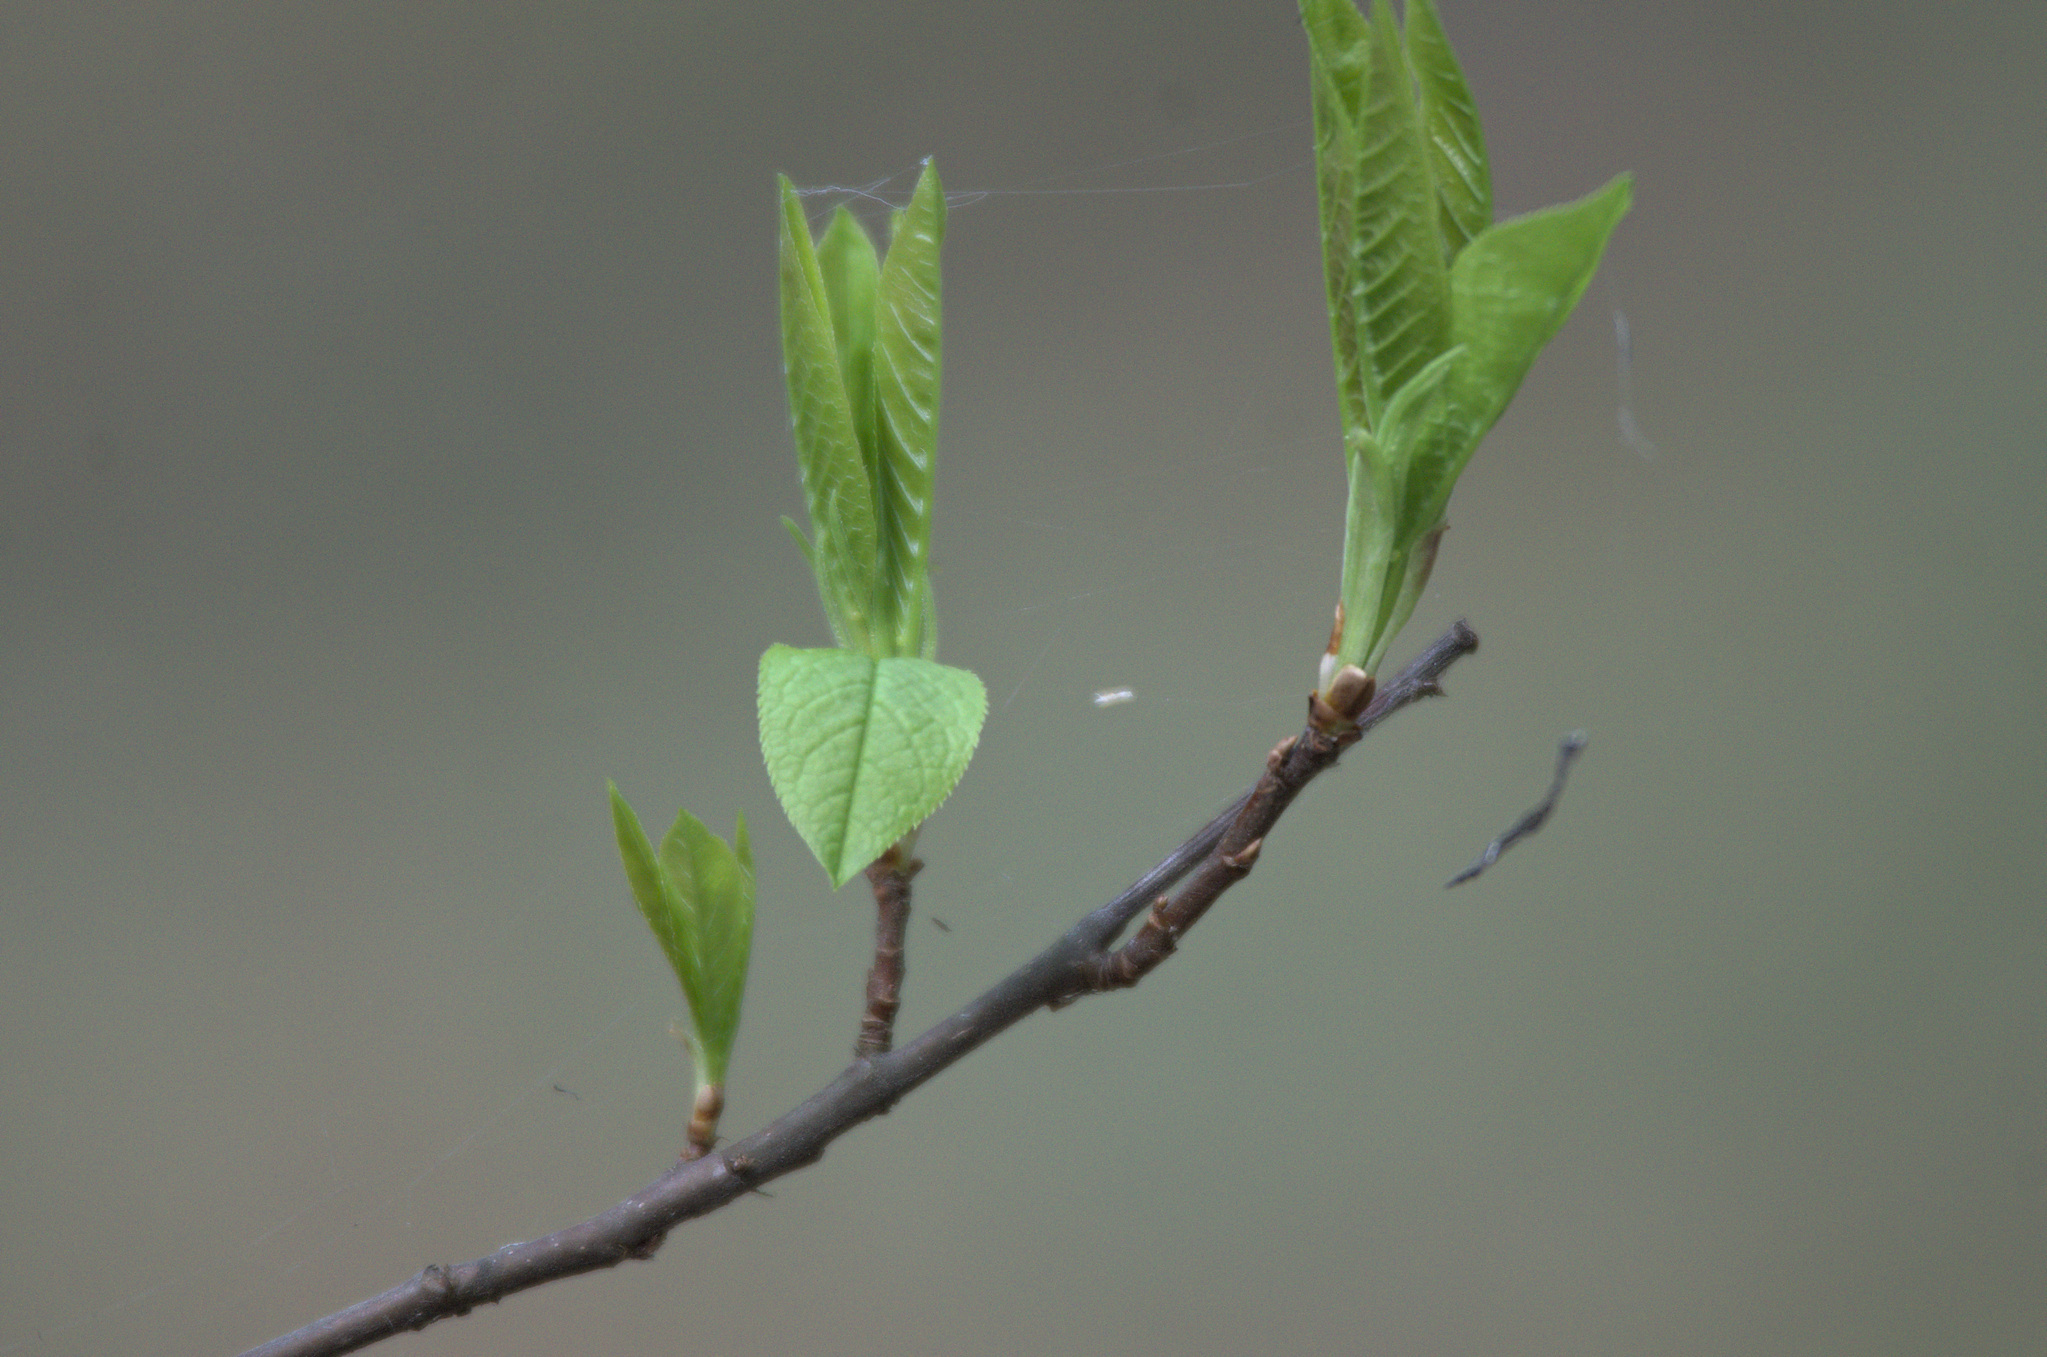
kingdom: Plantae
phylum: Tracheophyta
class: Magnoliopsida
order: Rosales
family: Rosaceae
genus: Prunus
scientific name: Prunus padus
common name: Bird cherry
